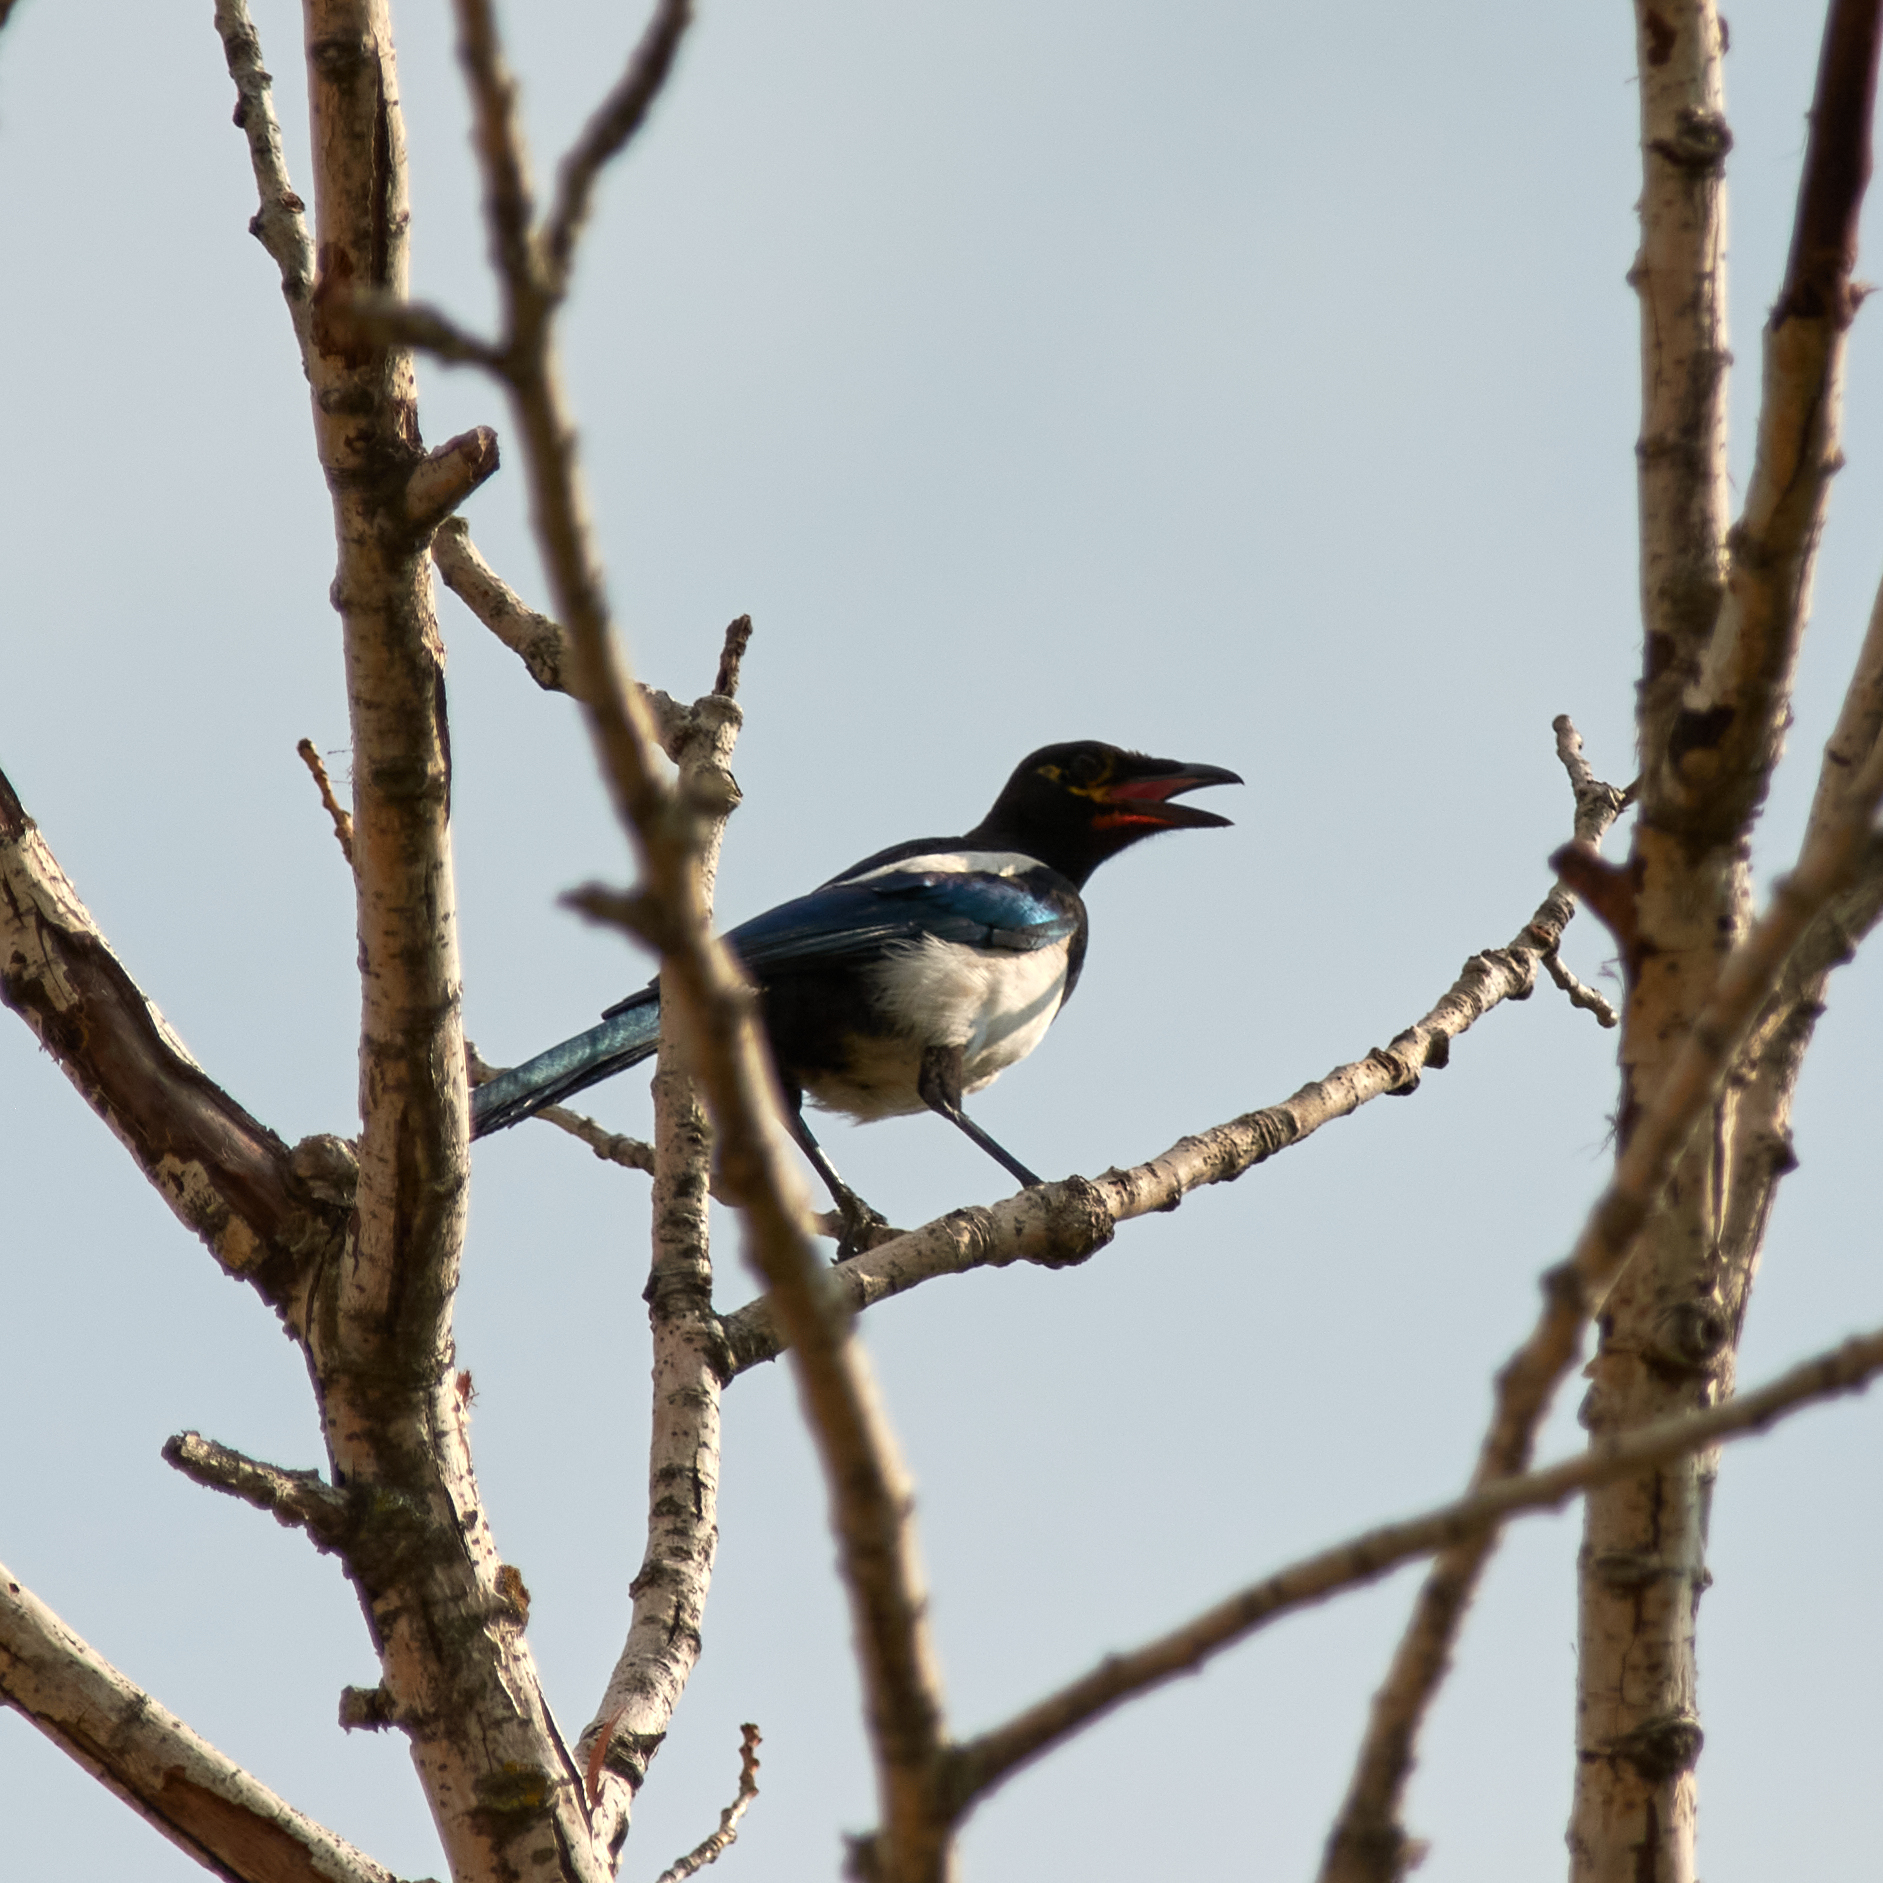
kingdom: Animalia
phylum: Chordata
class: Aves
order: Passeriformes
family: Corvidae
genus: Pica
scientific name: Pica pica
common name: Eurasian magpie
